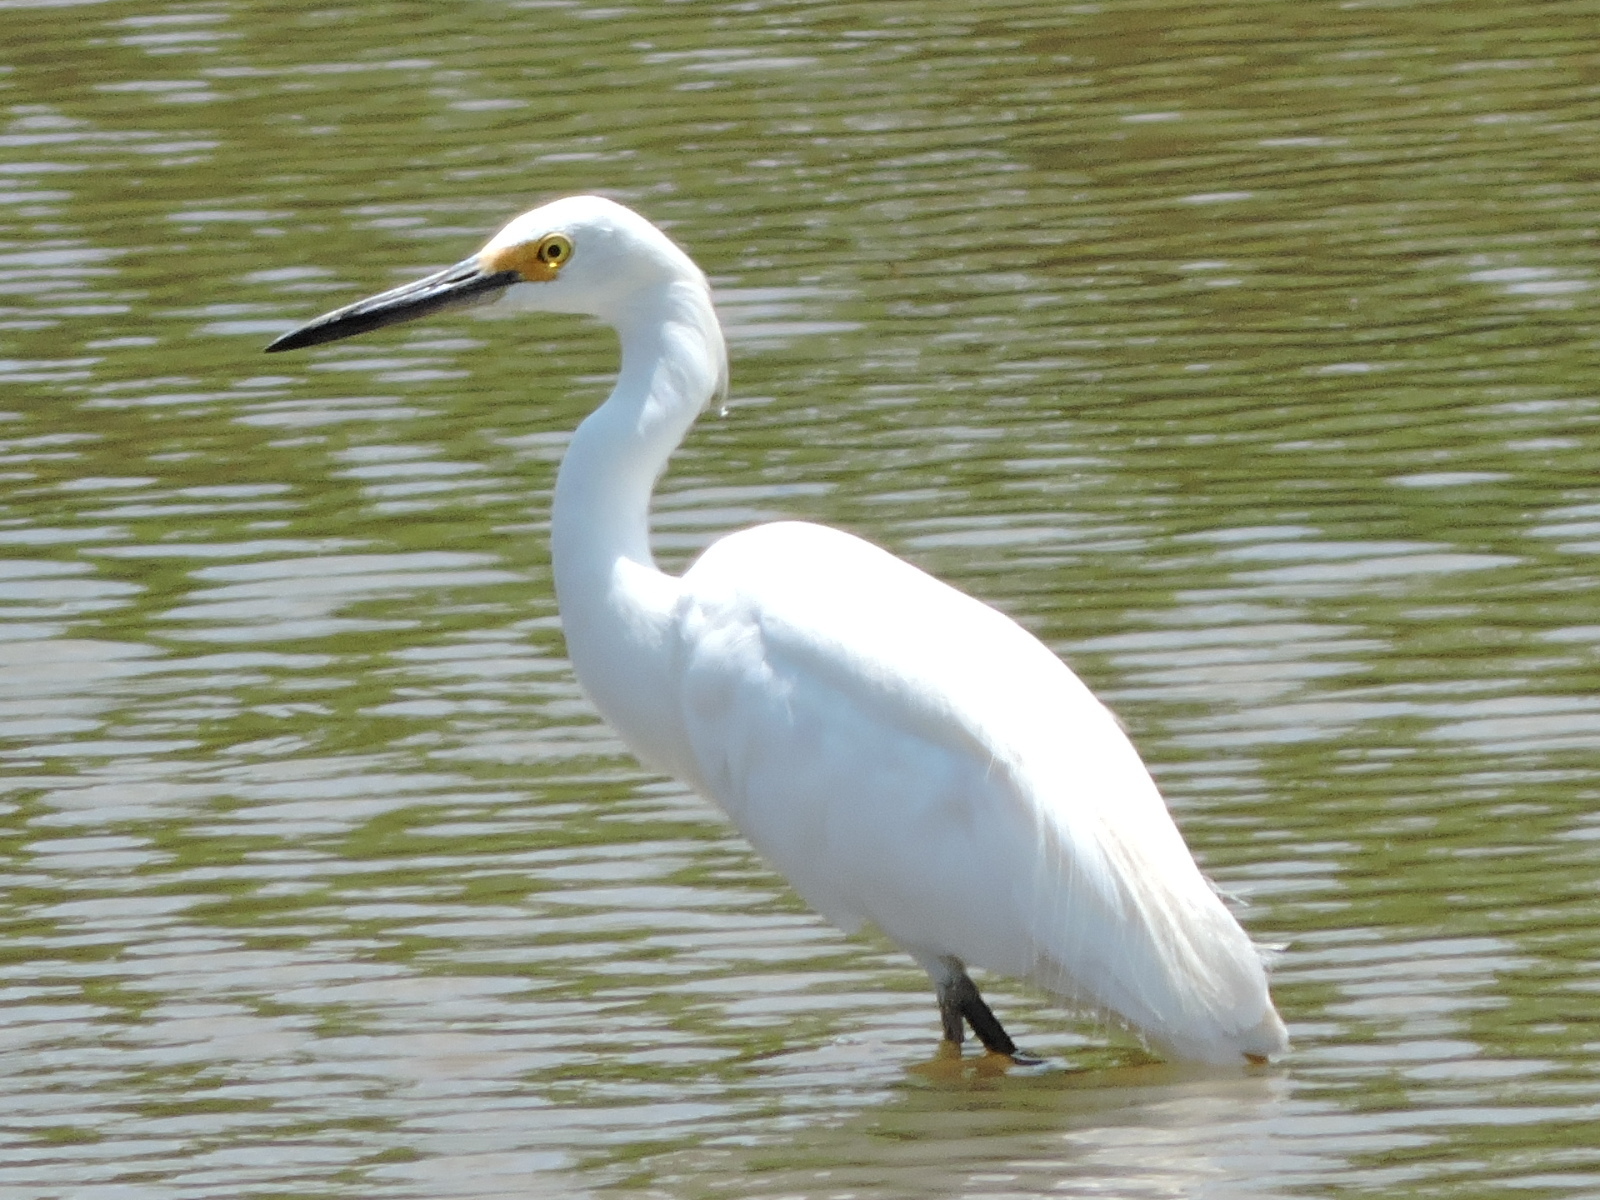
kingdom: Animalia
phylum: Chordata
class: Aves
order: Pelecaniformes
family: Ardeidae
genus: Egretta
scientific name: Egretta thula
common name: Snowy egret
